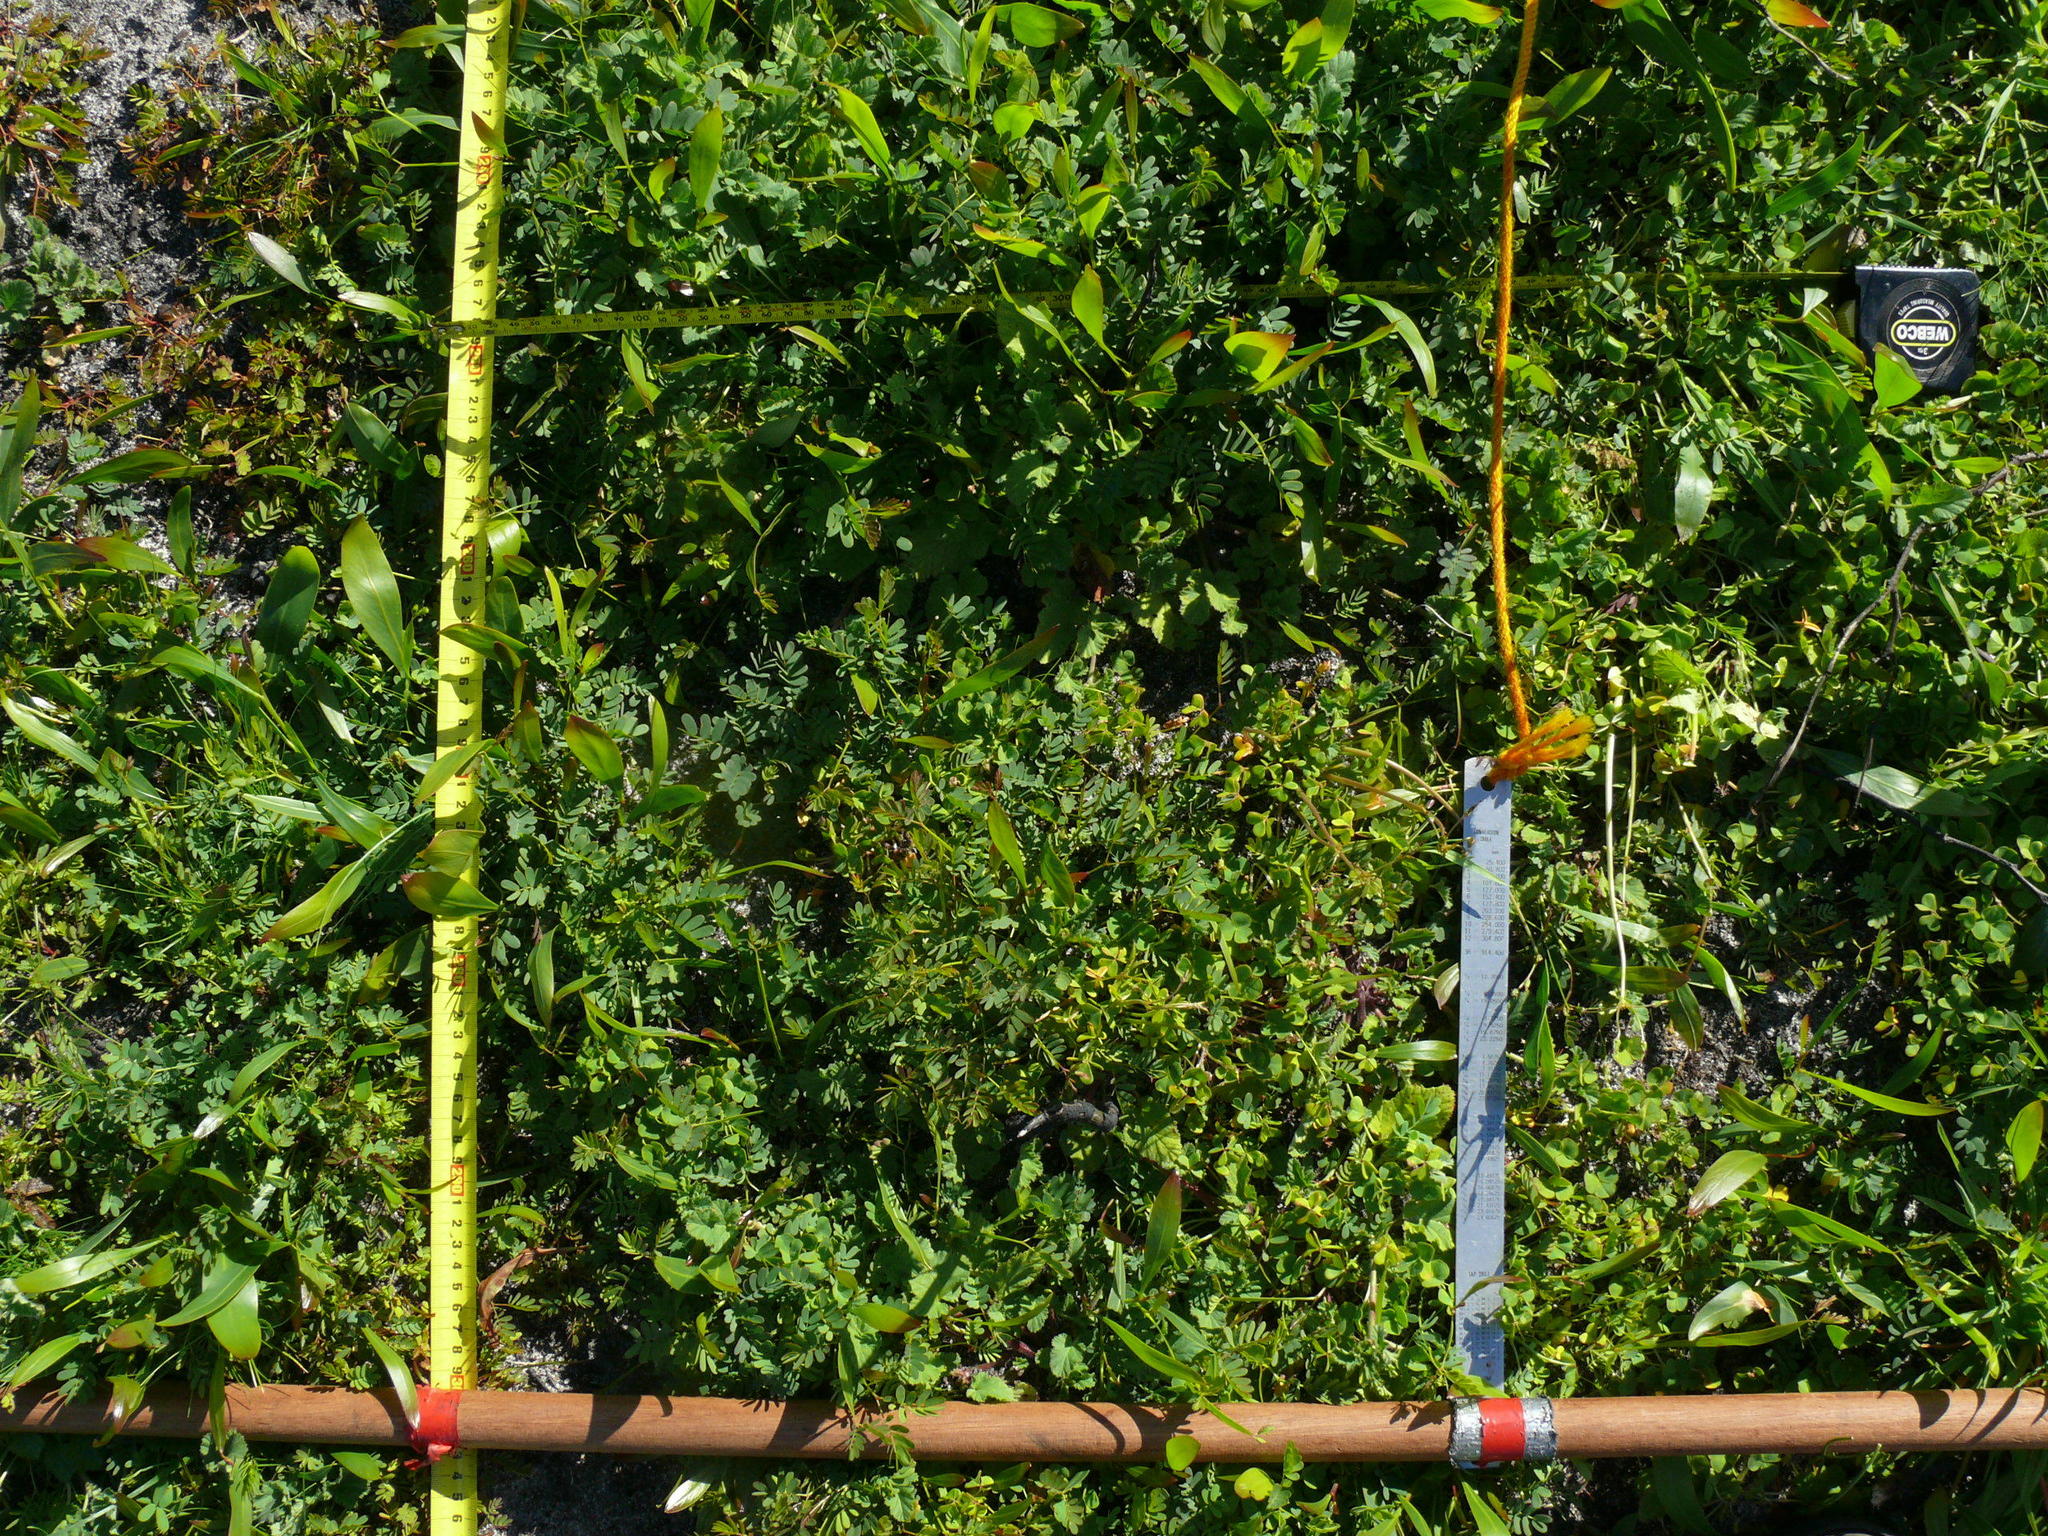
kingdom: Plantae
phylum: Tracheophyta
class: Magnoliopsida
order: Fabales
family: Fabaceae
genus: Acacia
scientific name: Acacia saligna
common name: Orange wattle
